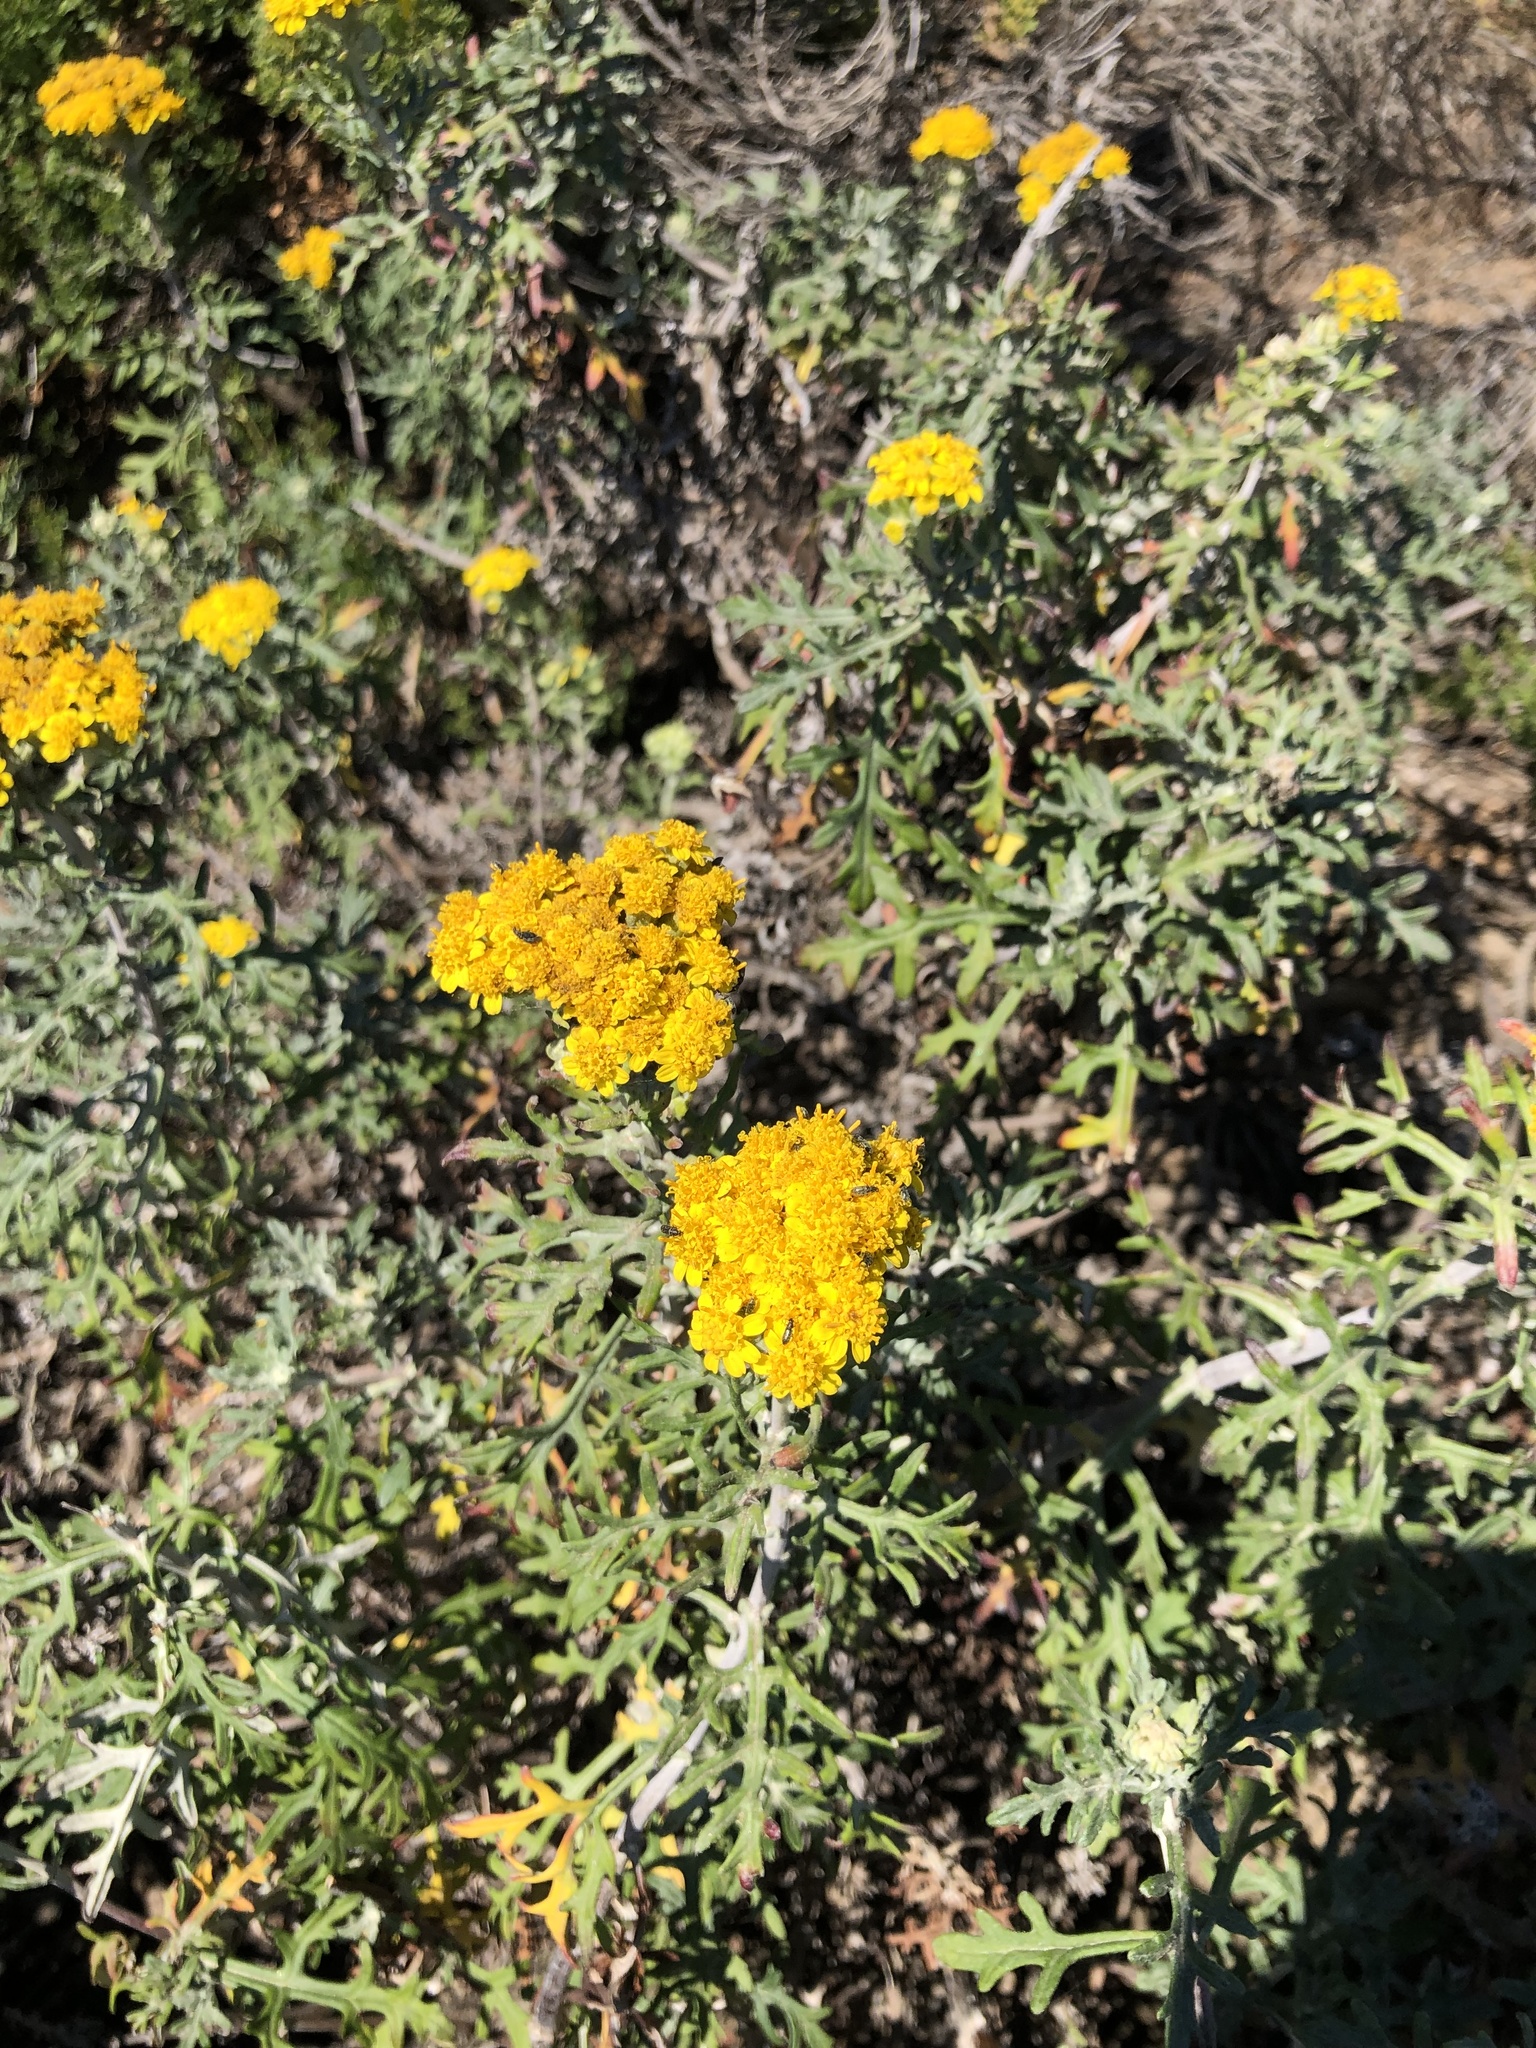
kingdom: Plantae
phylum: Tracheophyta
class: Magnoliopsida
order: Asterales
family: Asteraceae
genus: Eriophyllum
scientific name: Eriophyllum staechadifolium
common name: Lizardtail
